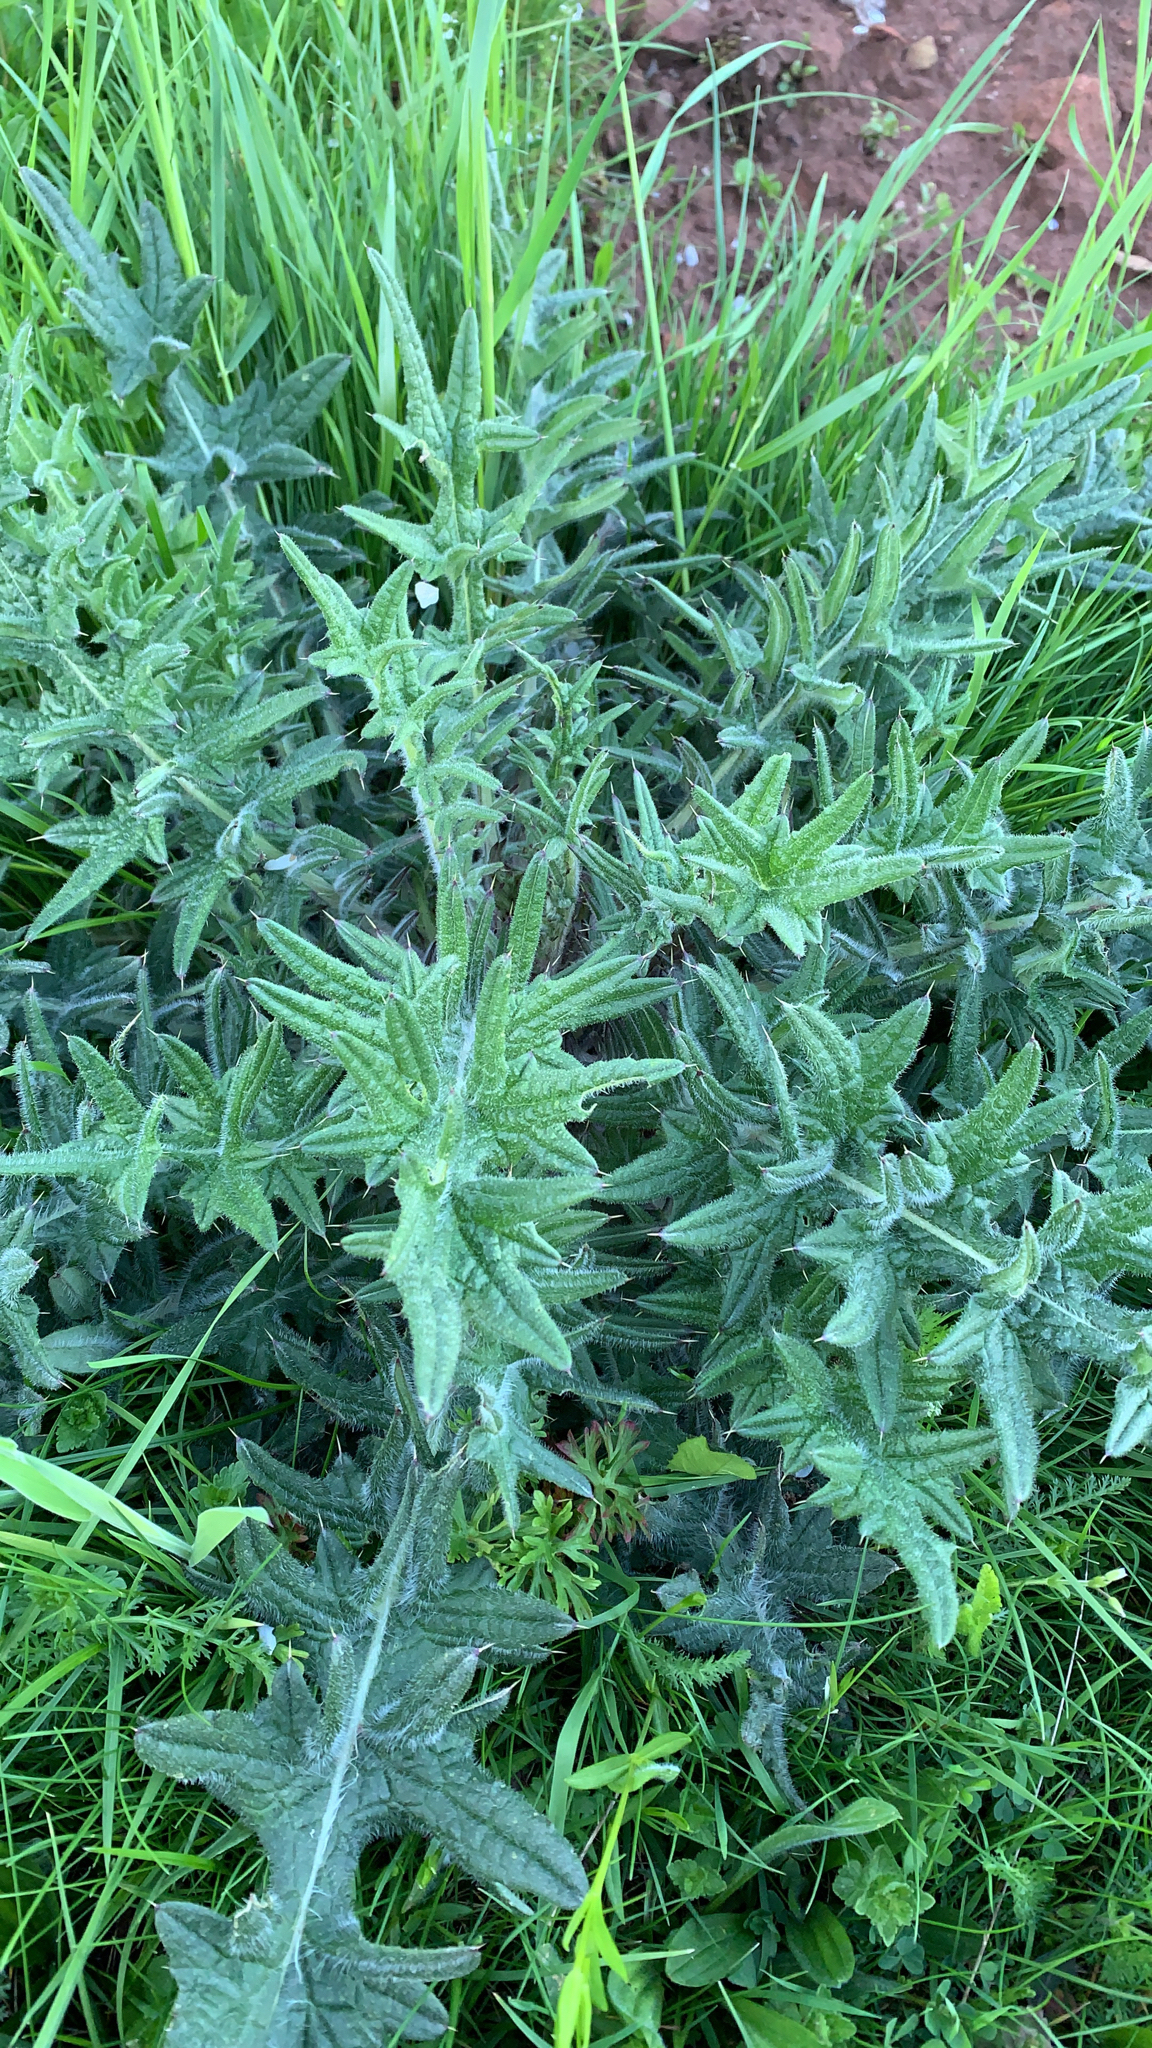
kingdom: Plantae
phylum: Tracheophyta
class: Magnoliopsida
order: Asterales
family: Asteraceae
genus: Cirsium
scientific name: Cirsium vulgare
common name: Bull thistle
